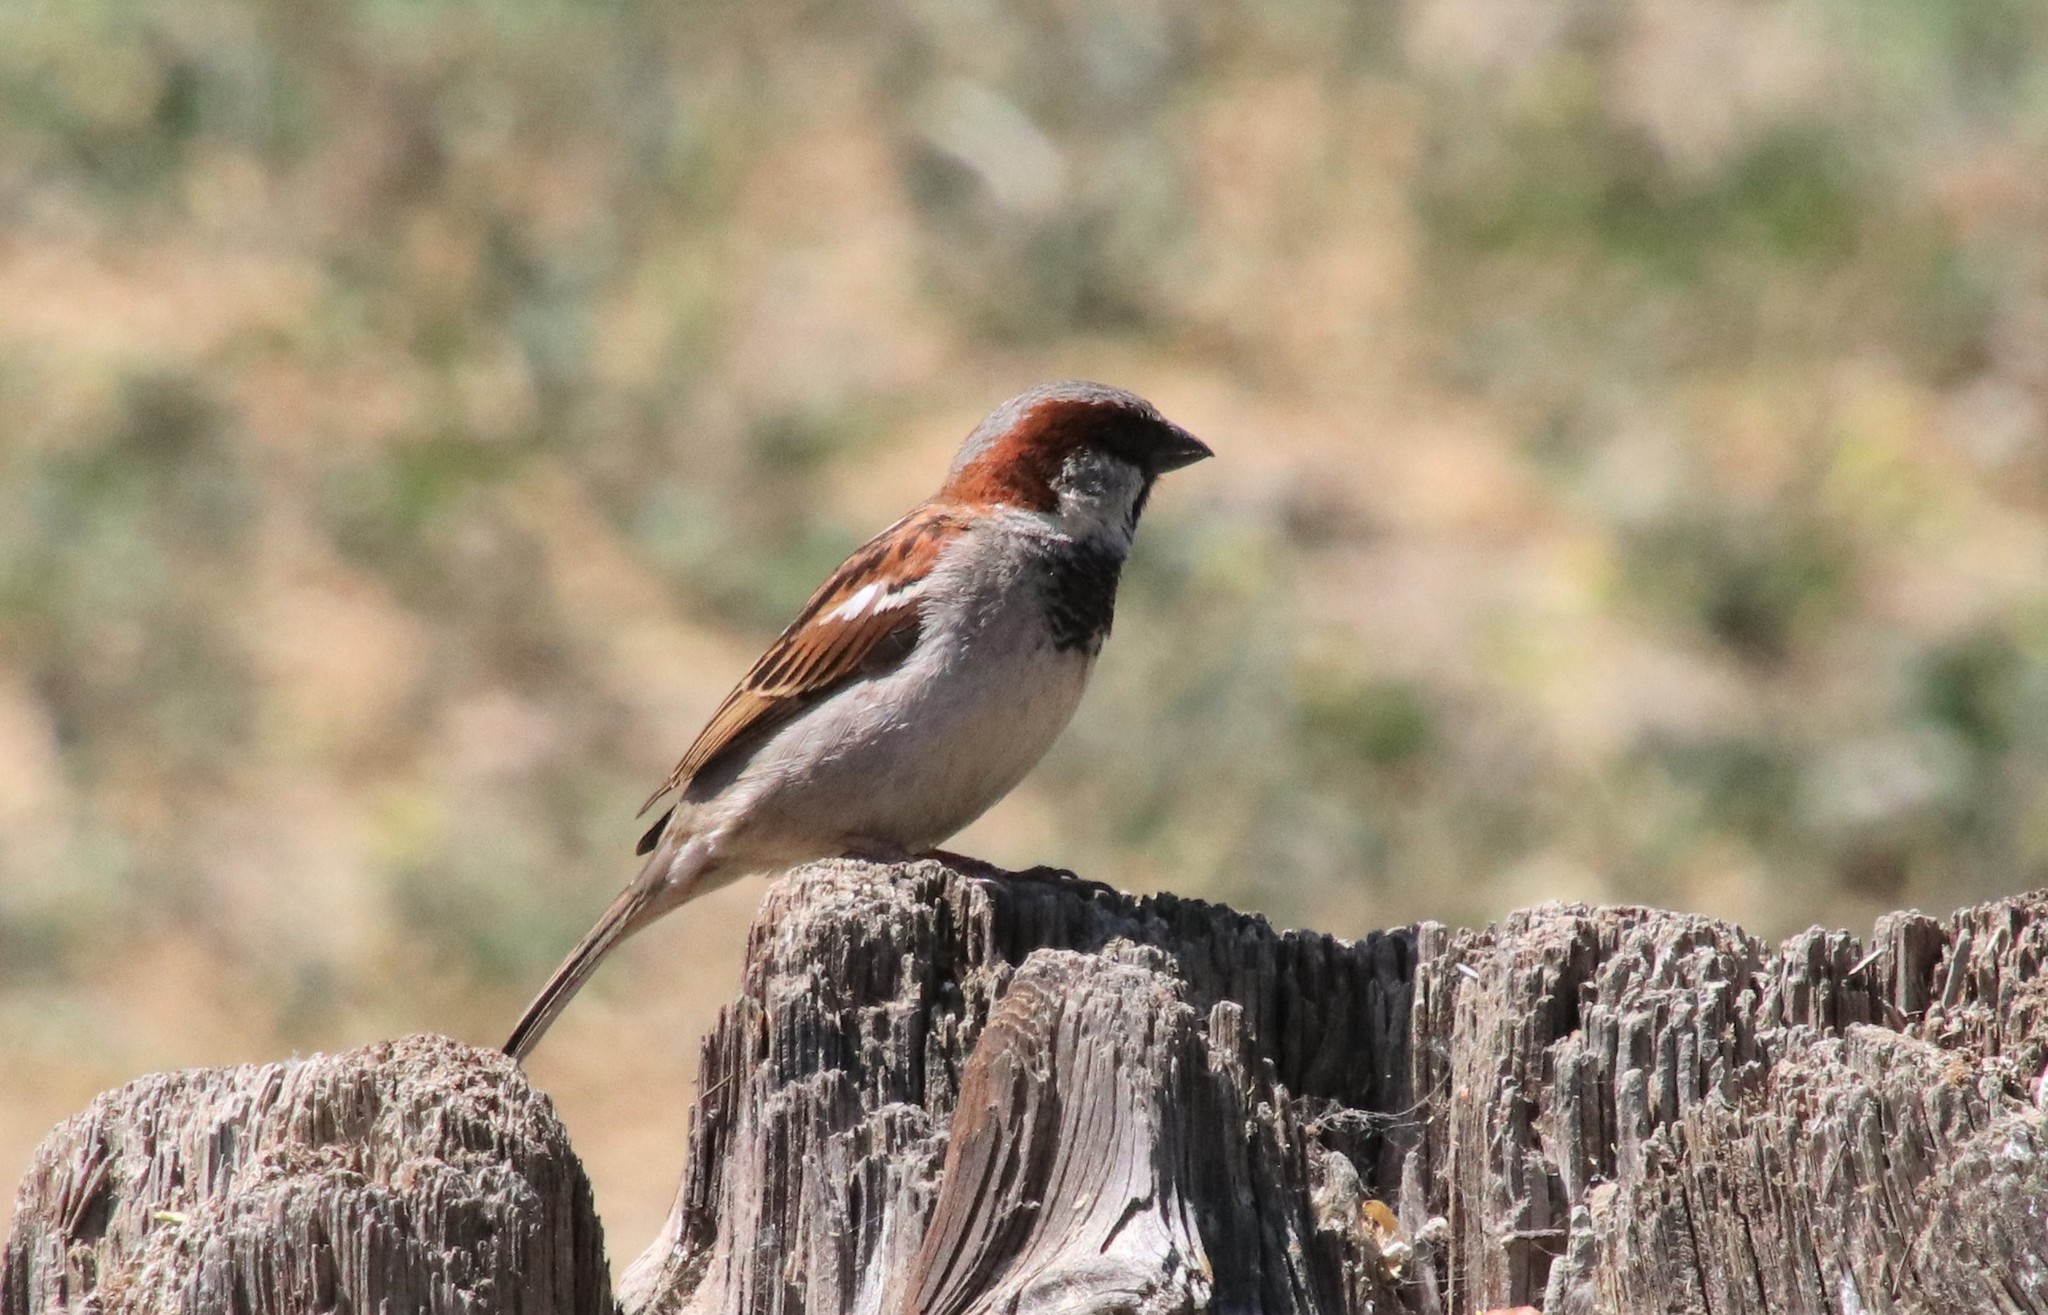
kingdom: Animalia
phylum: Chordata
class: Aves
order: Passeriformes
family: Passeridae
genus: Passer
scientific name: Passer domesticus
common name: House sparrow
